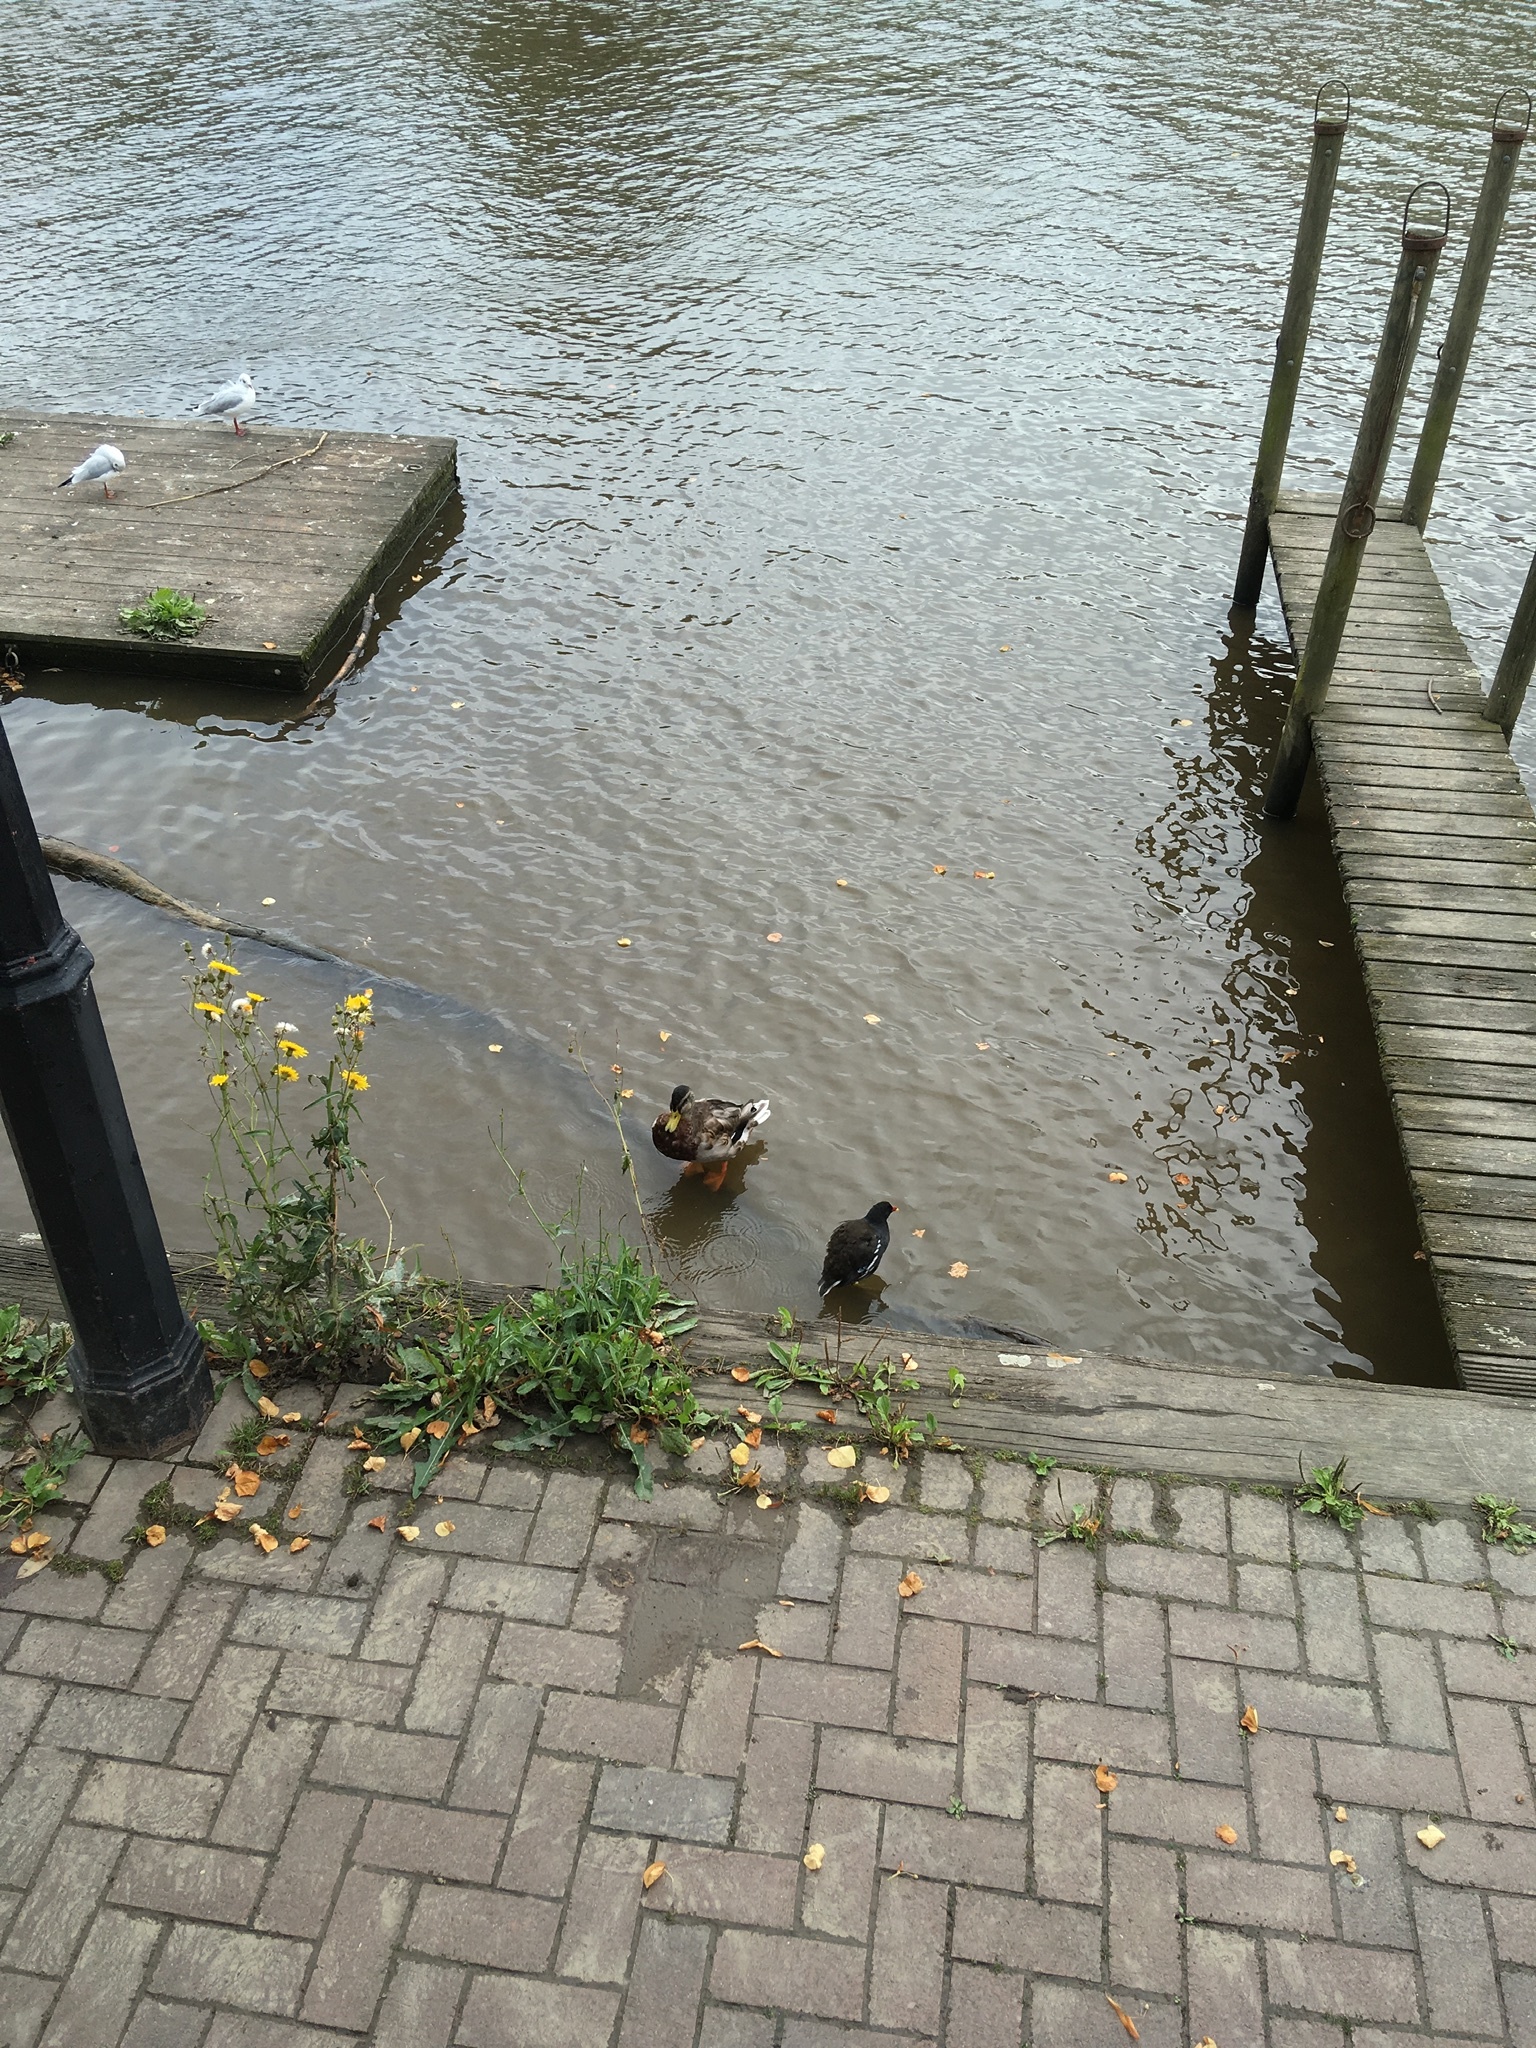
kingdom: Animalia
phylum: Chordata
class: Aves
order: Anseriformes
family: Anatidae
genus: Anas
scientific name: Anas platyrhynchos
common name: Mallard
